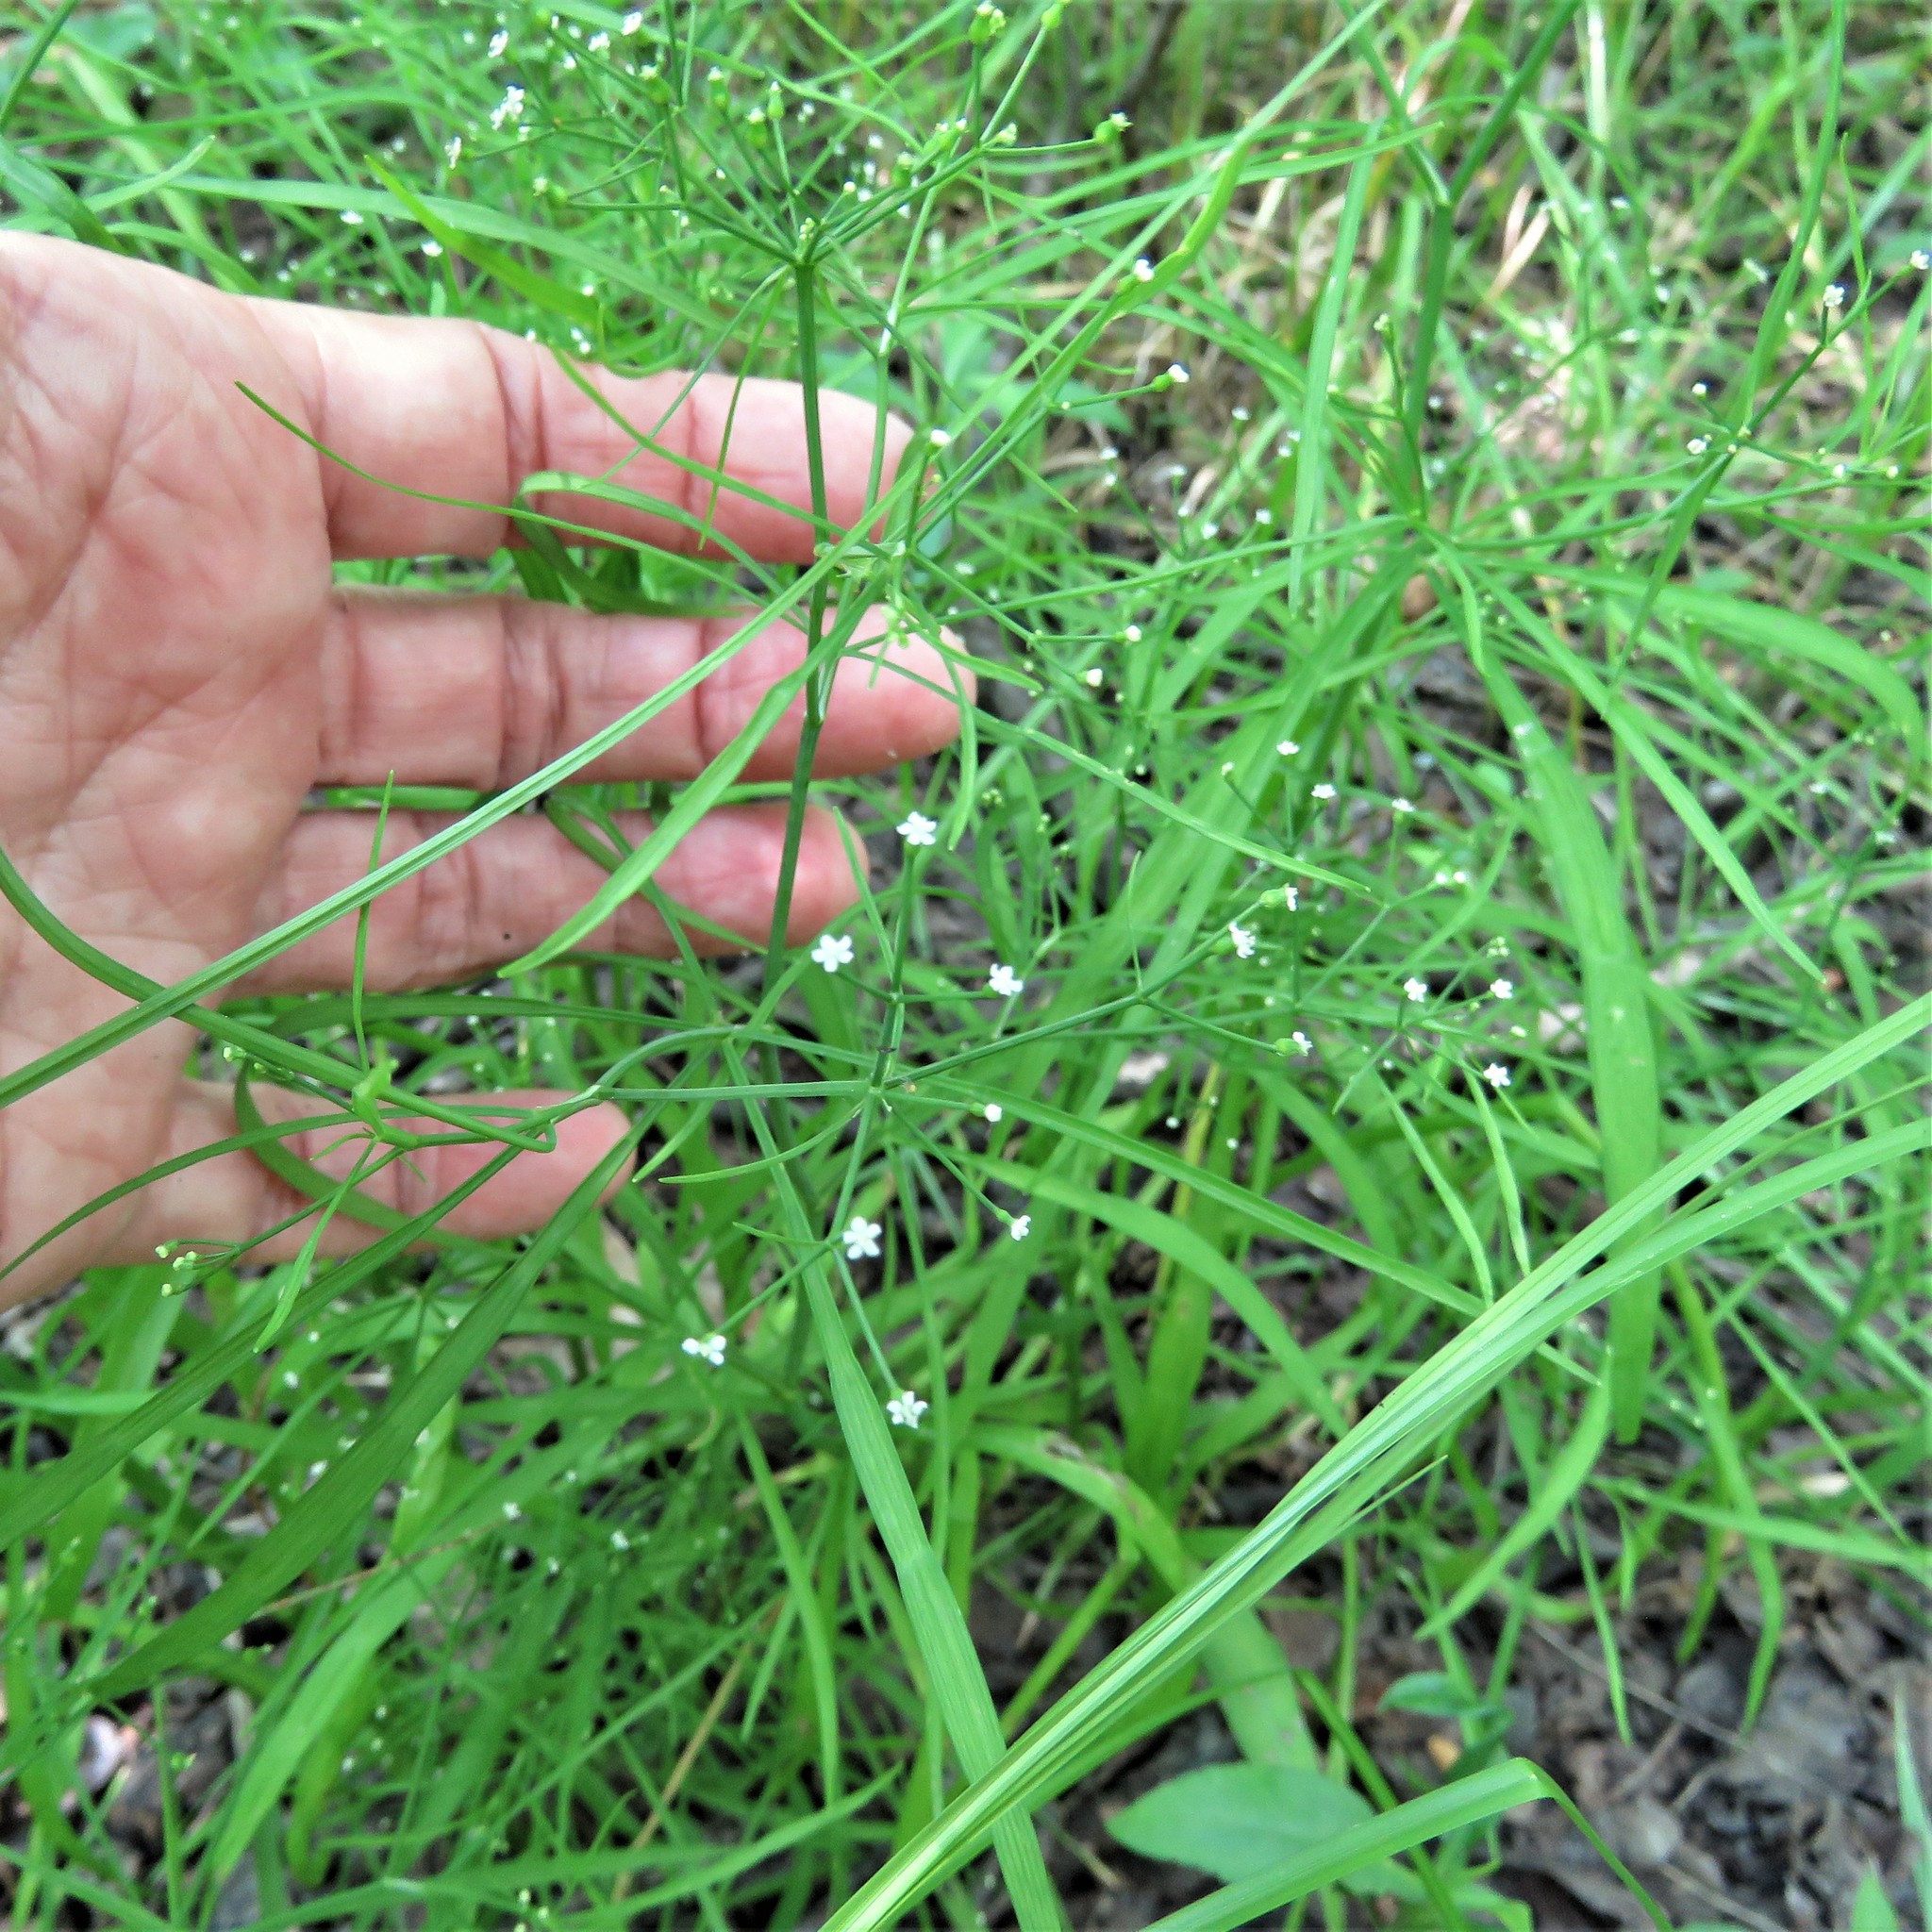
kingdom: Plantae
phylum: Tracheophyta
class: Magnoliopsida
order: Ericales
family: Primulaceae
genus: Samolus
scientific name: Samolus parviflorus
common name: False water pimpernel
